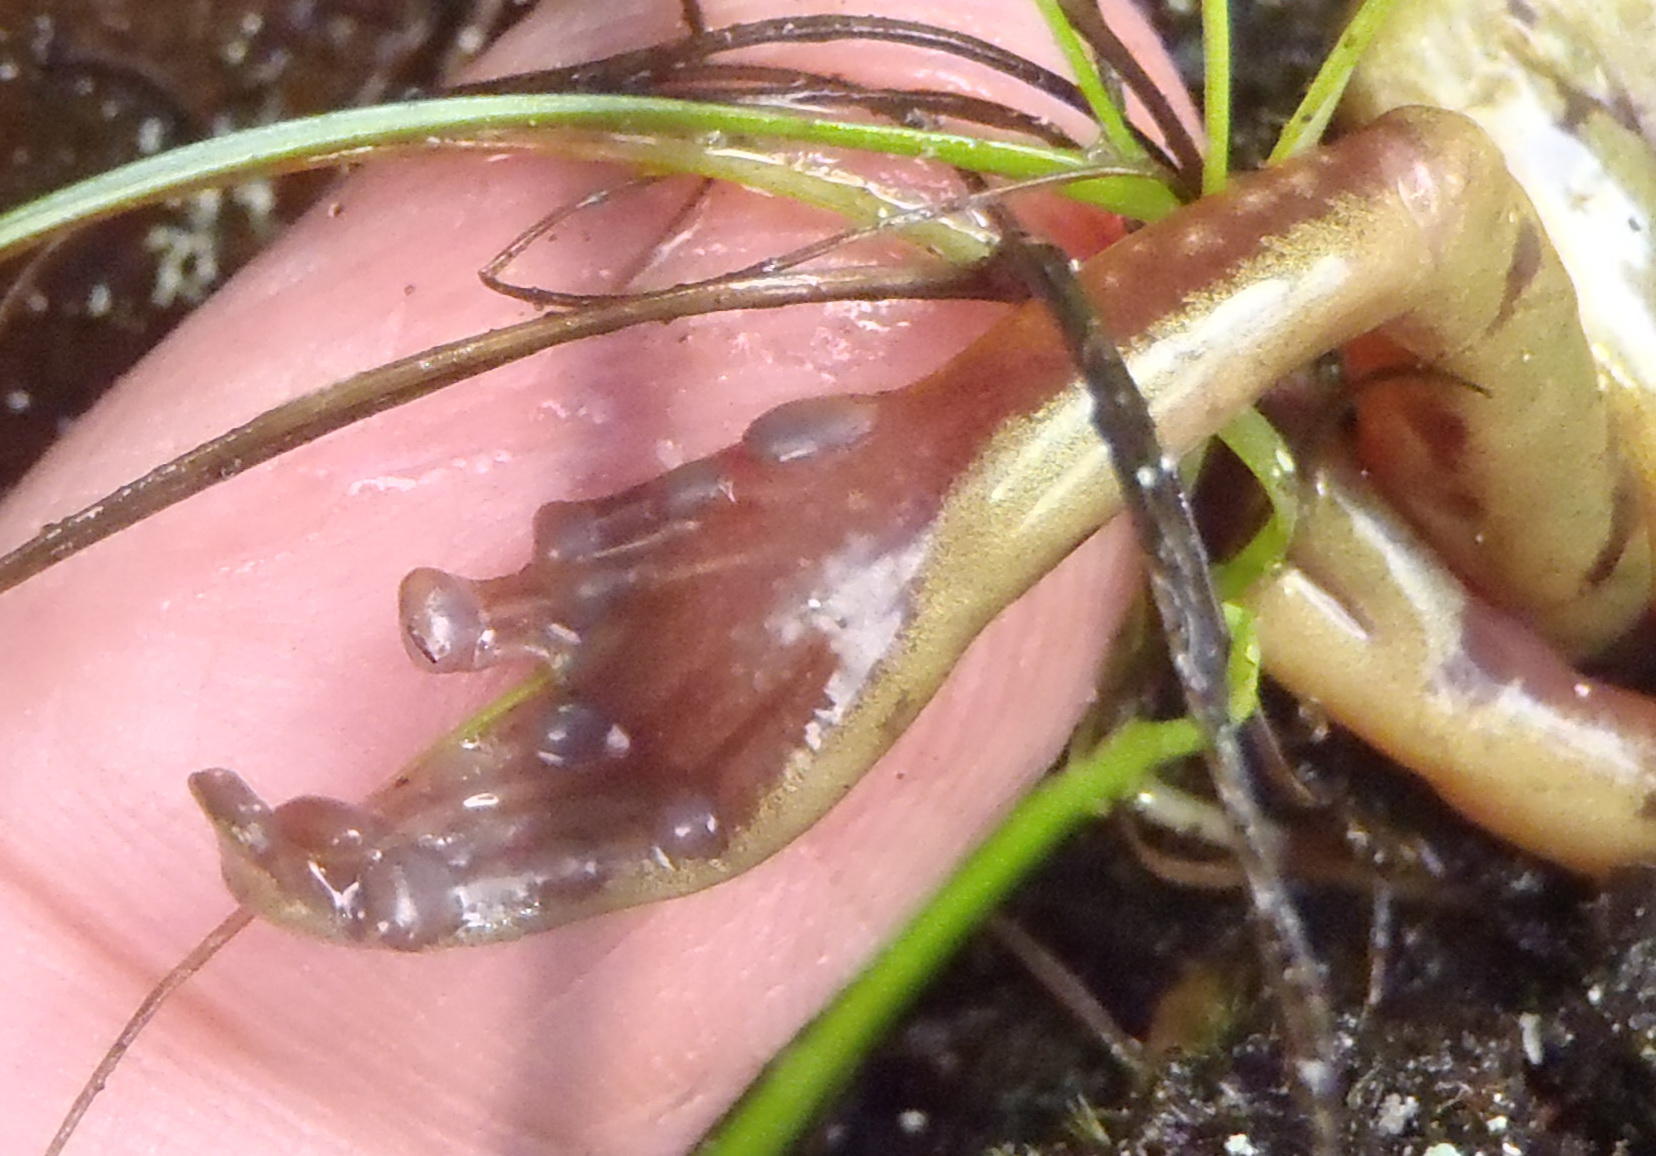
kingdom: Animalia
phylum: Chordata
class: Amphibia
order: Anura
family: Heleophrynidae
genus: Heleophryne
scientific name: Heleophryne regis
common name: Royal ghost frog
